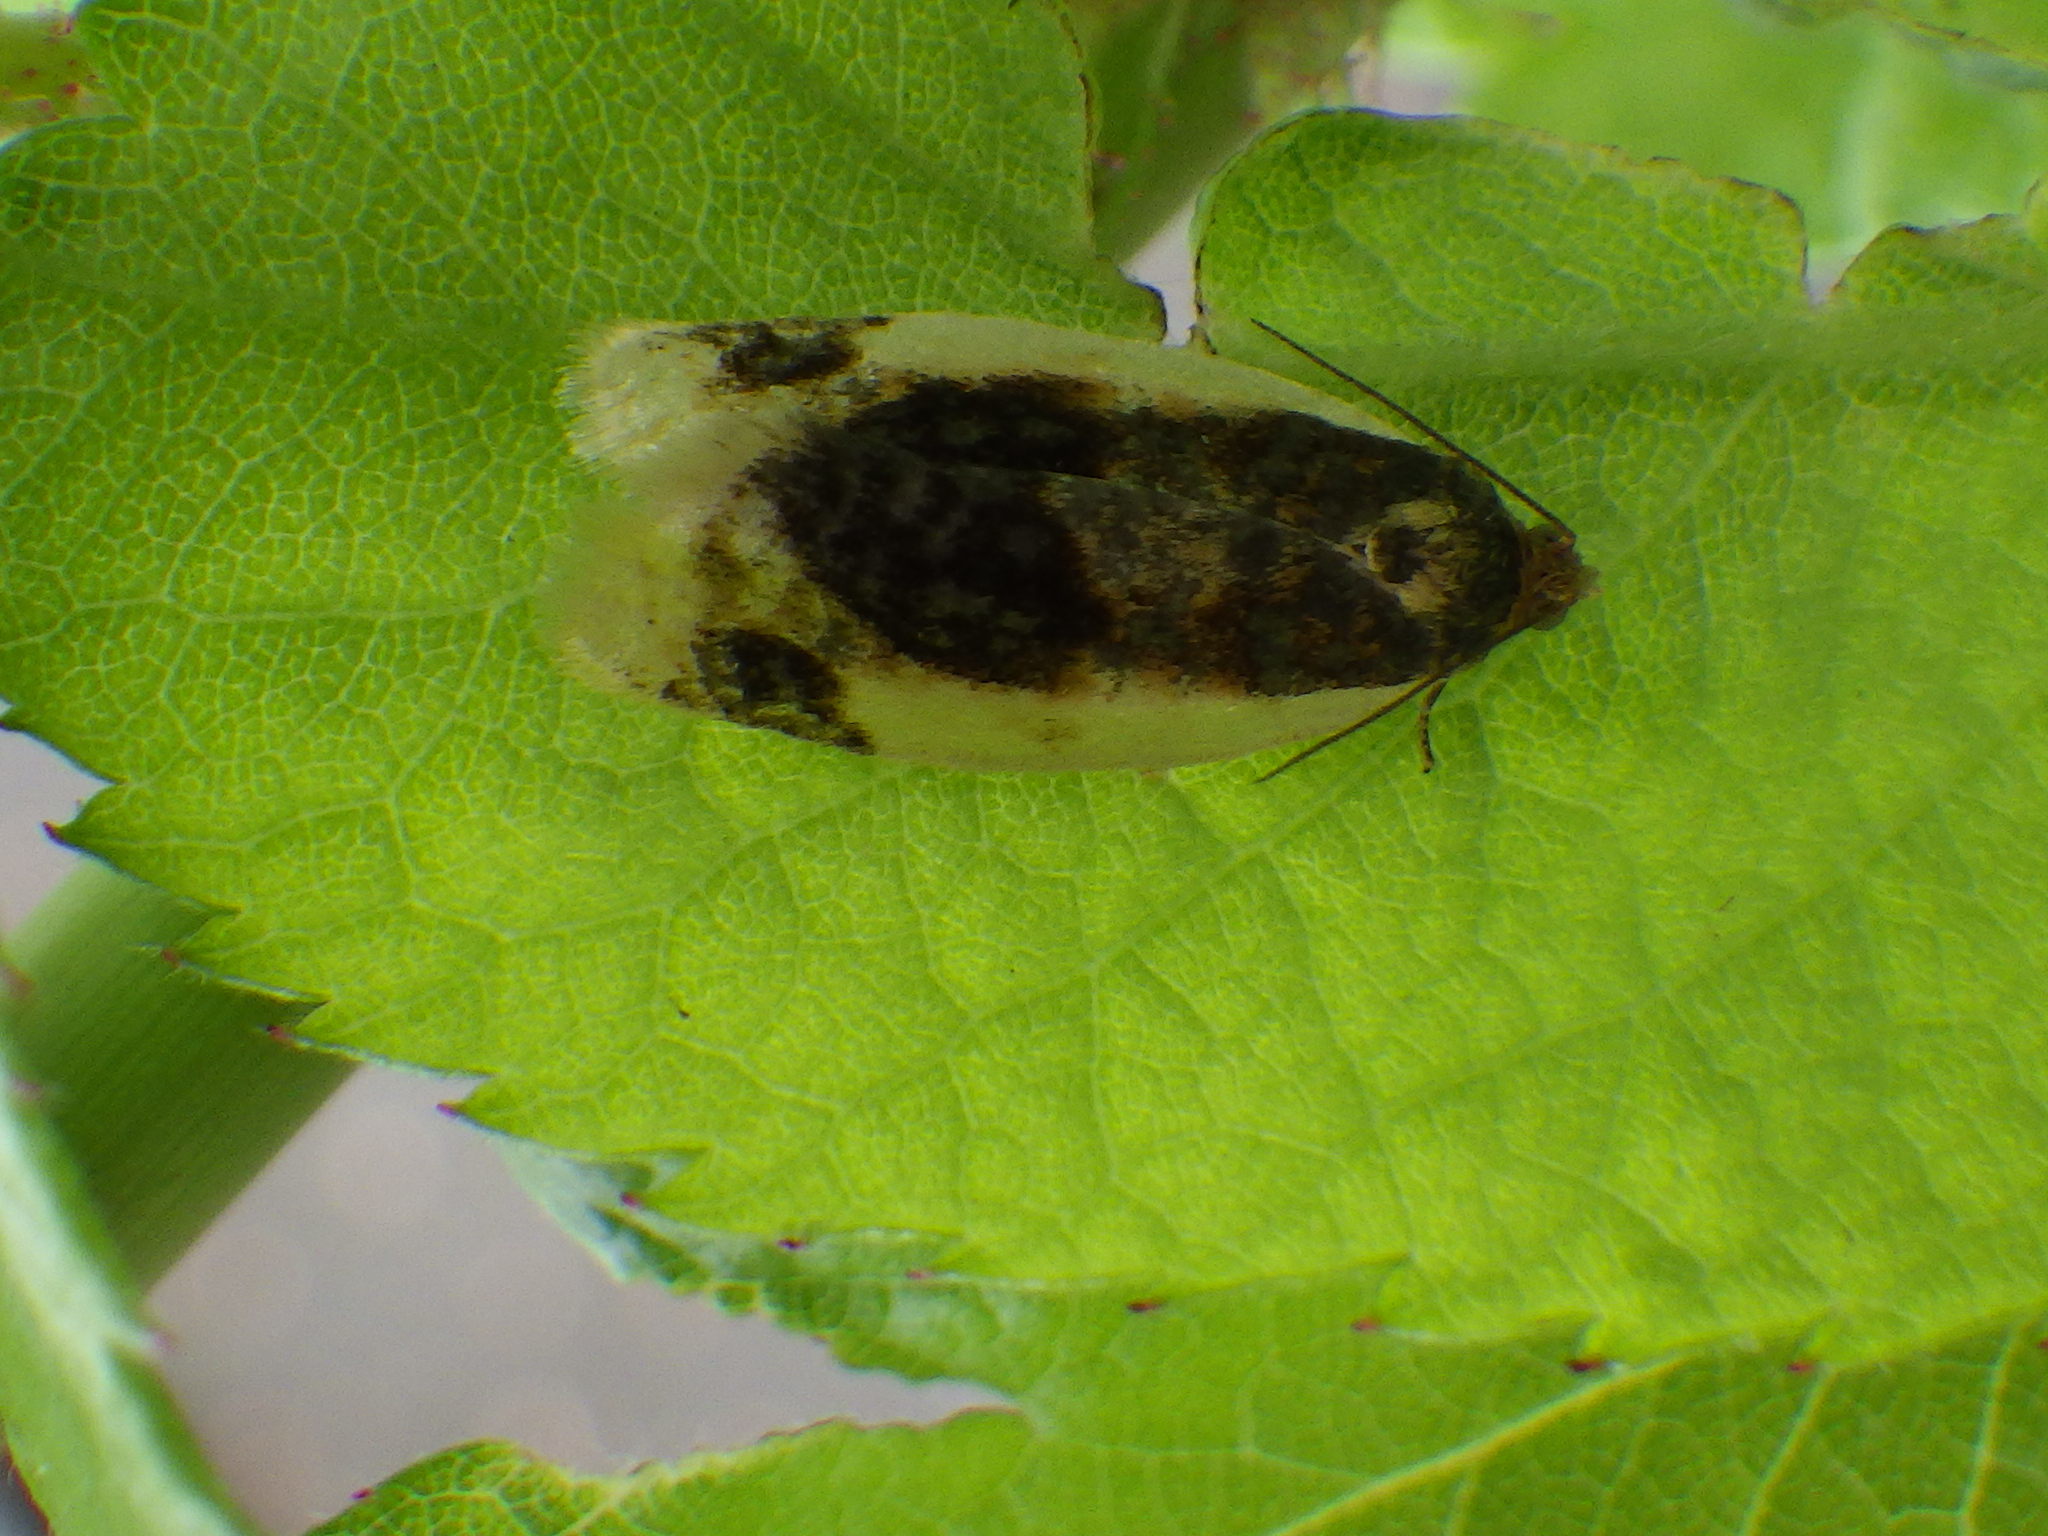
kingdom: Animalia
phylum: Arthropoda
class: Insecta
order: Lepidoptera
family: Tortricidae
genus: Clepsis
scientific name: Clepsis melaleucanus
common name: American apple tortrix
